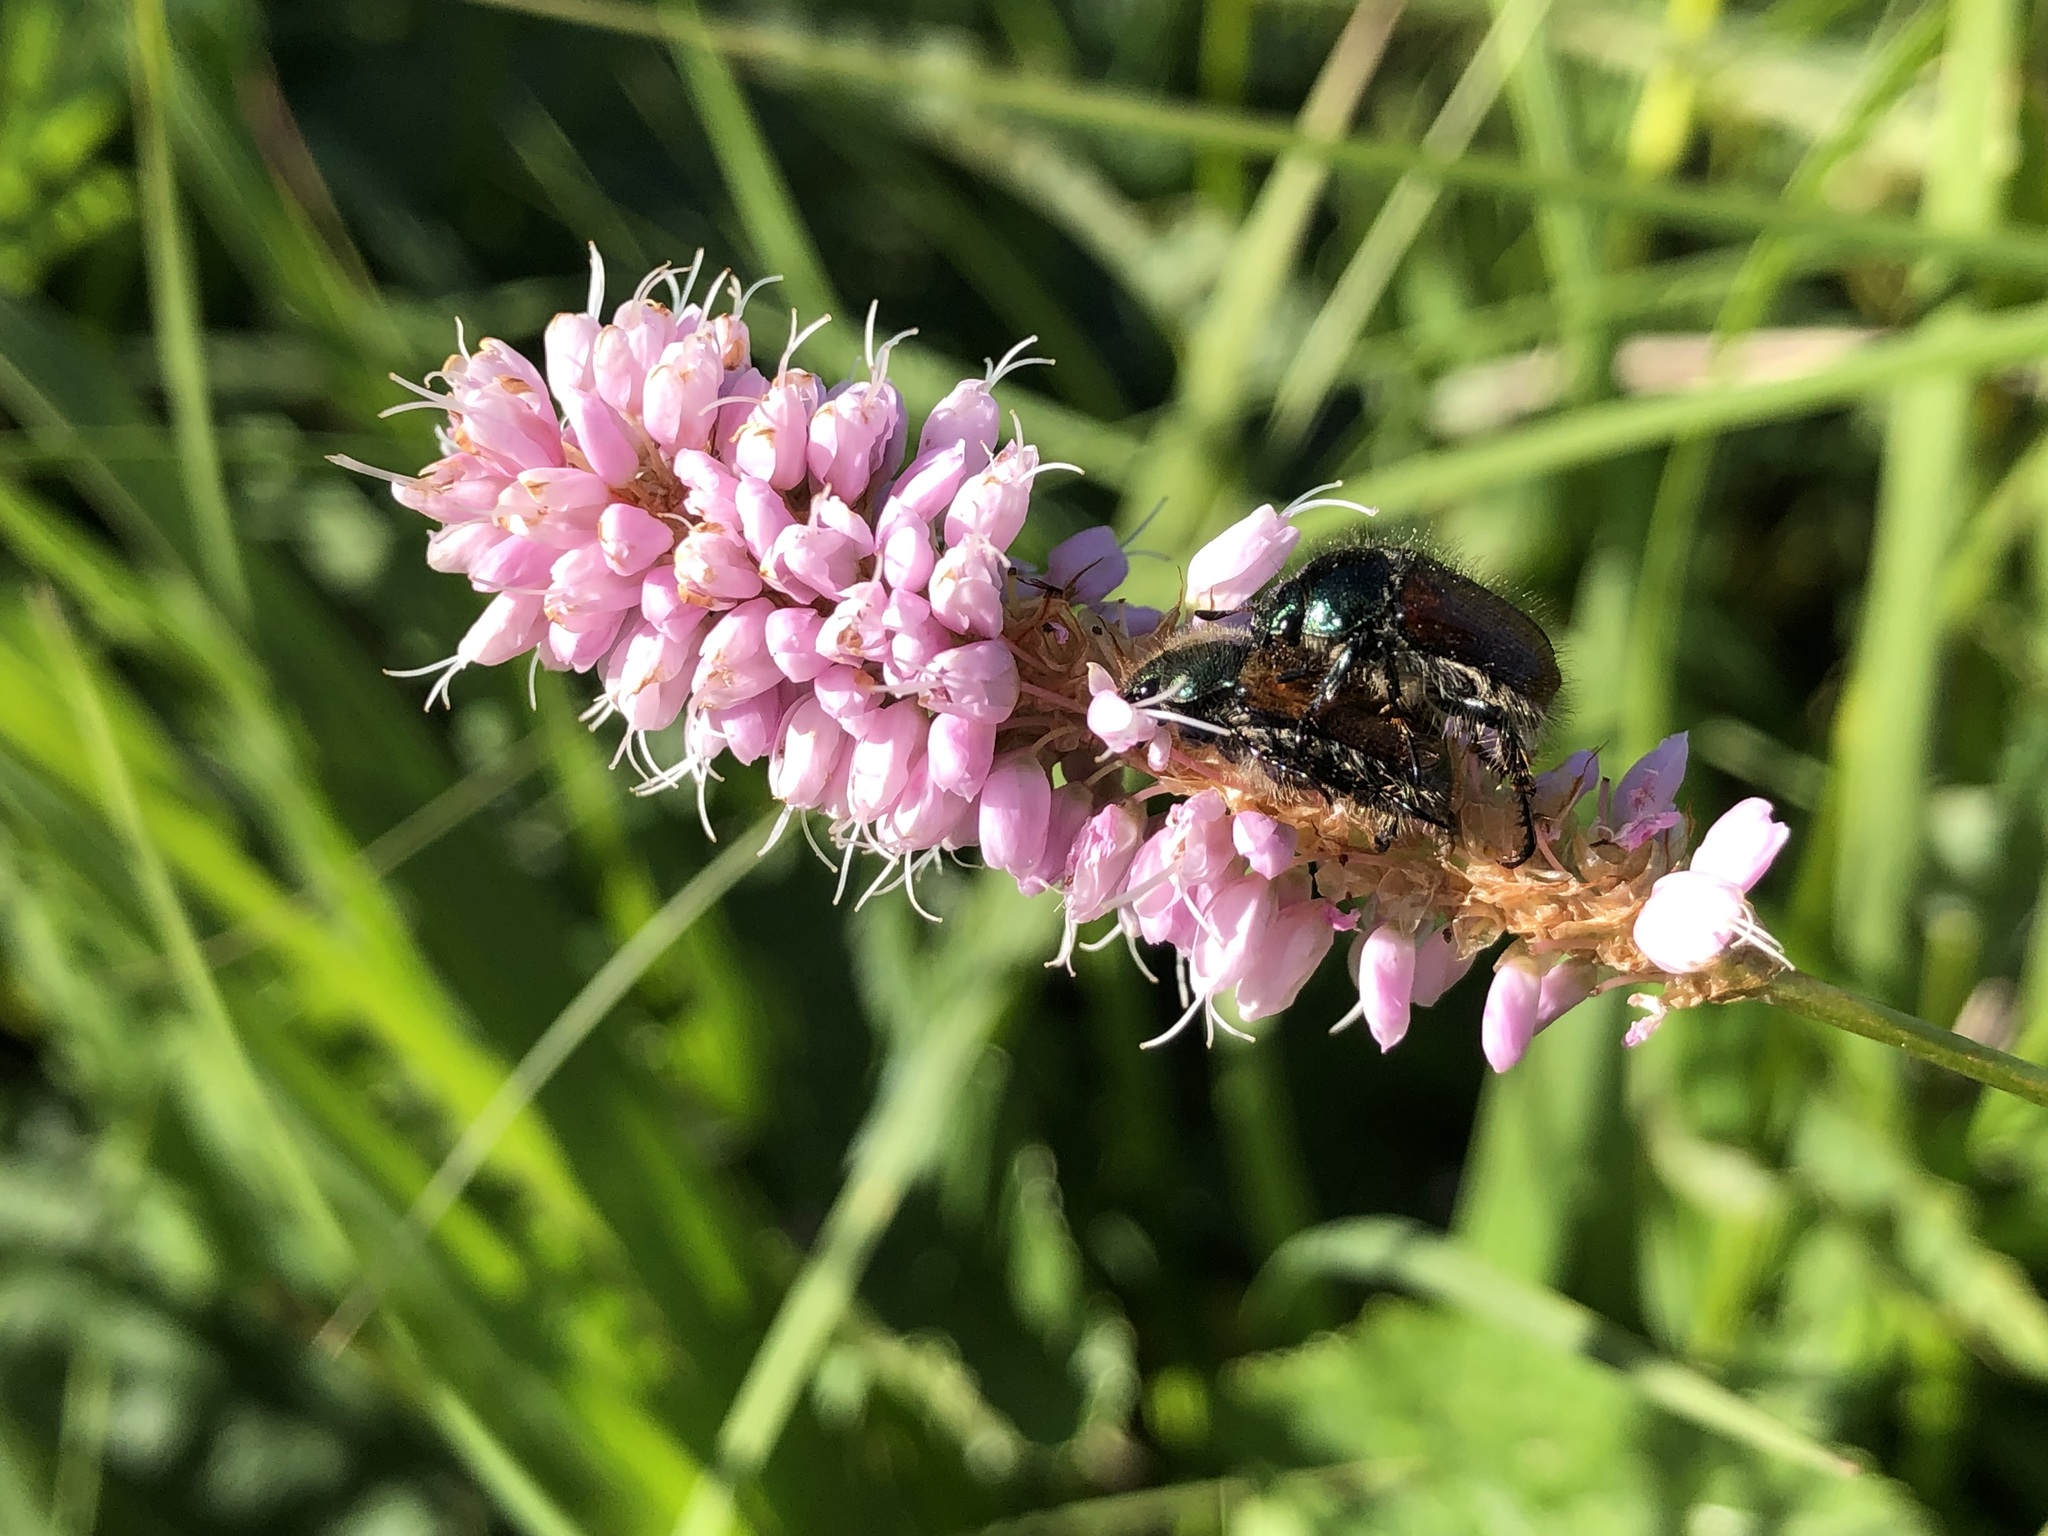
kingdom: Animalia
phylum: Arthropoda
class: Insecta
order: Coleoptera
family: Scarabaeidae
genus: Phyllopertha
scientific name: Phyllopertha horticola
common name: Garden chafer
